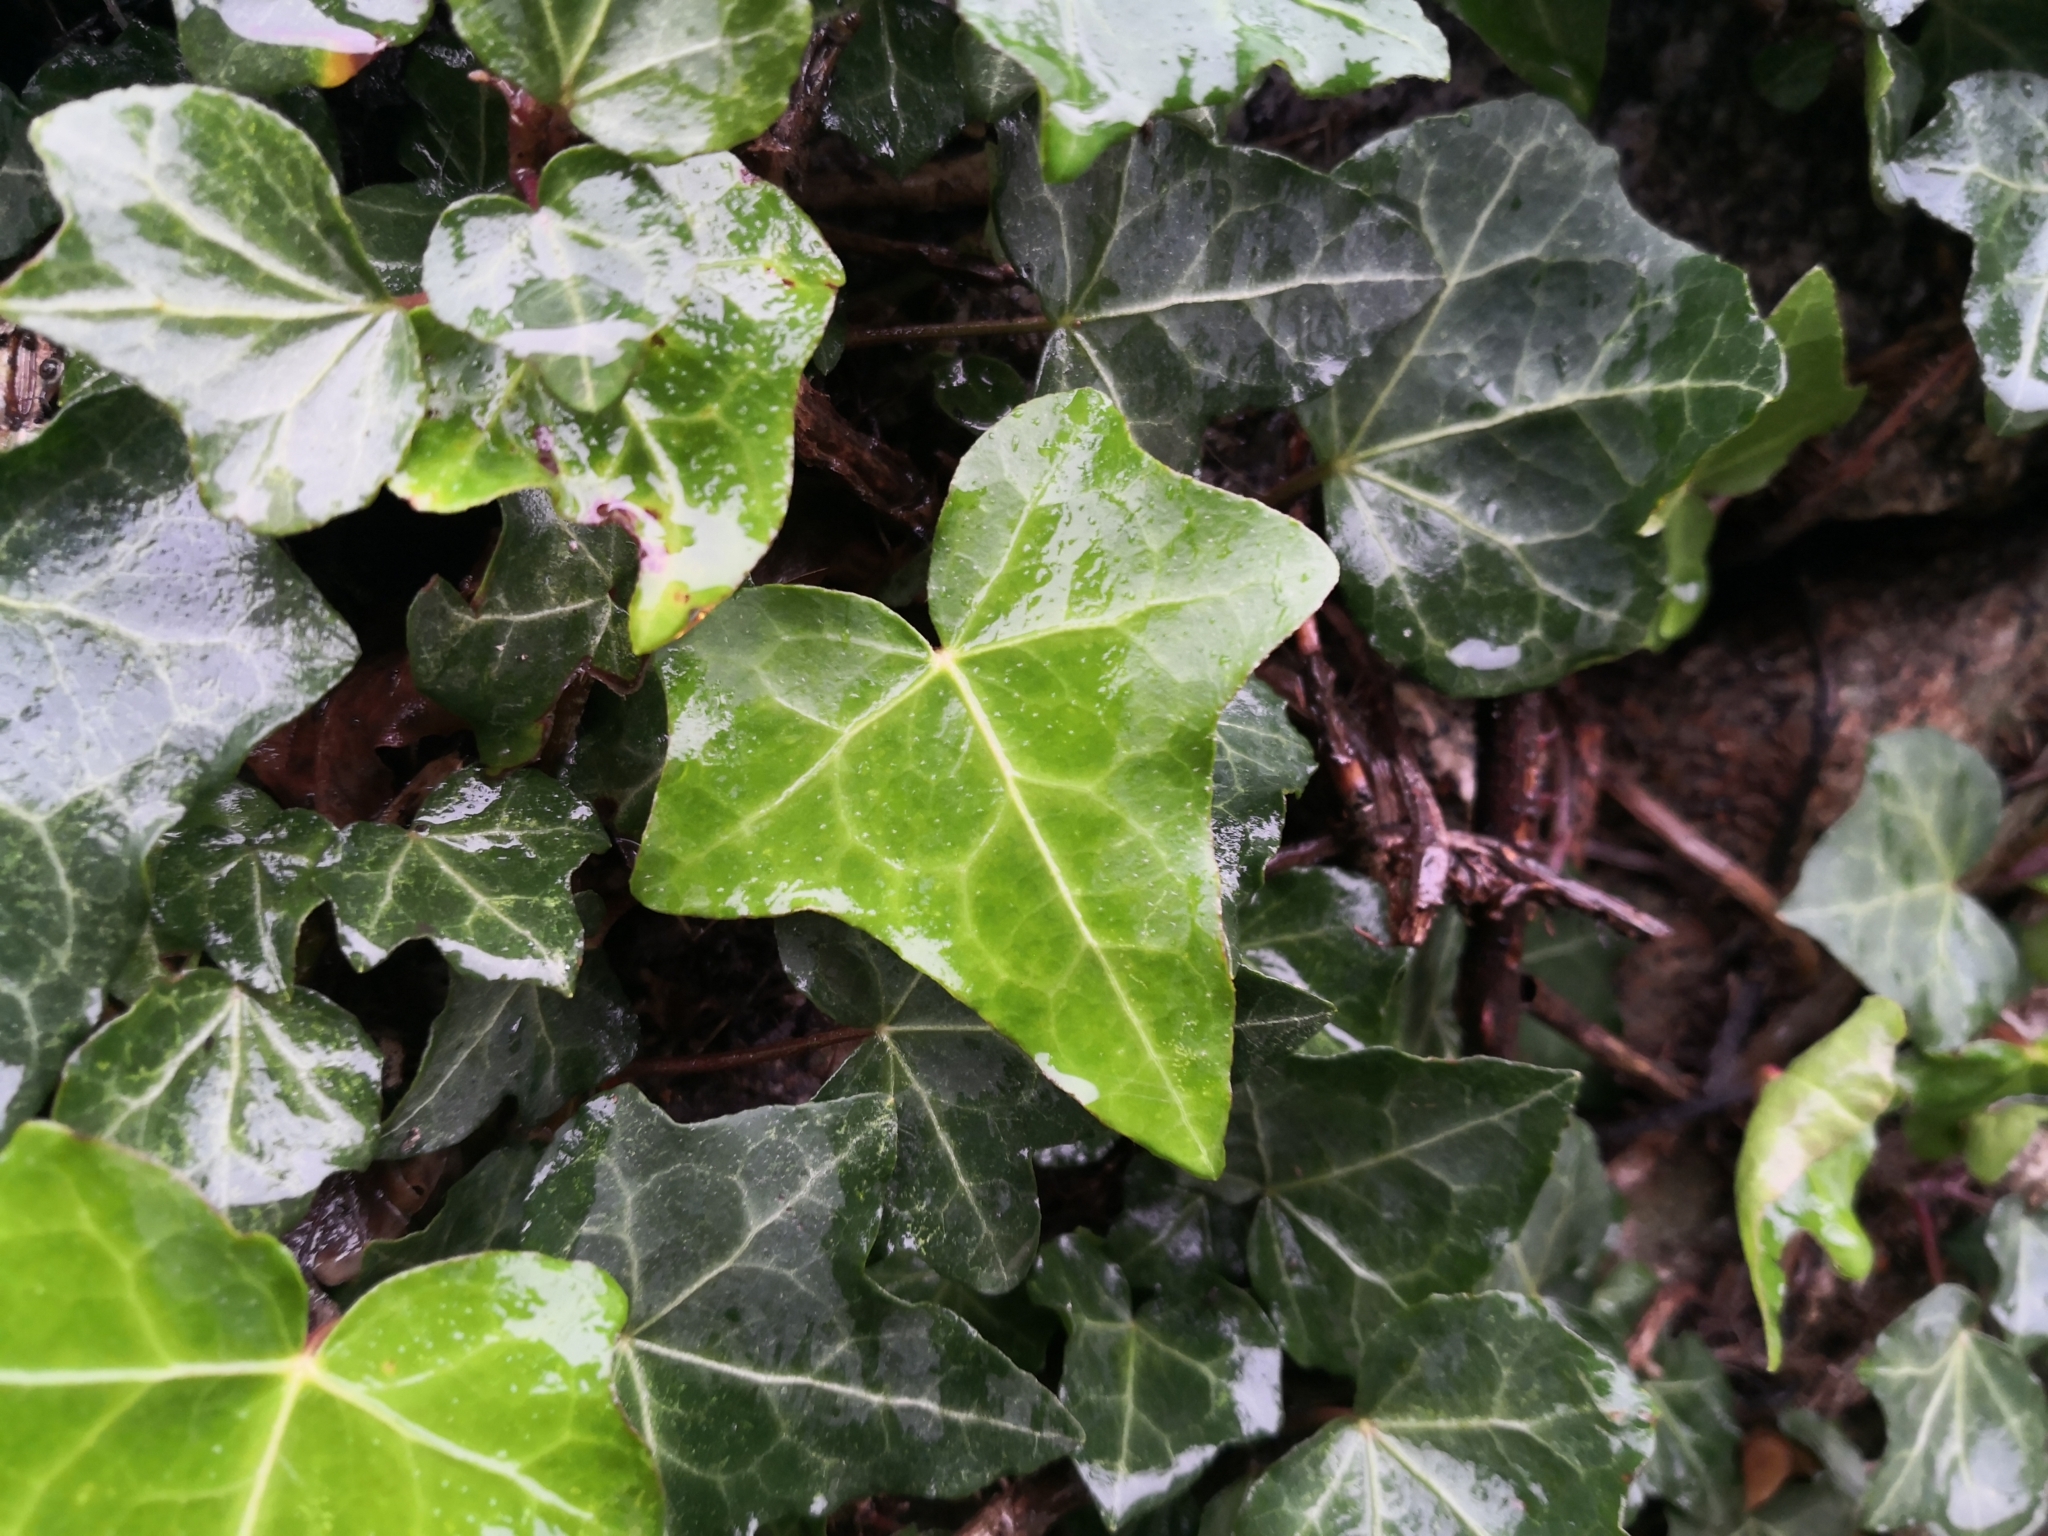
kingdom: Plantae
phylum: Tracheophyta
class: Magnoliopsida
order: Apiales
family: Araliaceae
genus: Hedera
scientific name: Hedera helix
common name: Ivy
